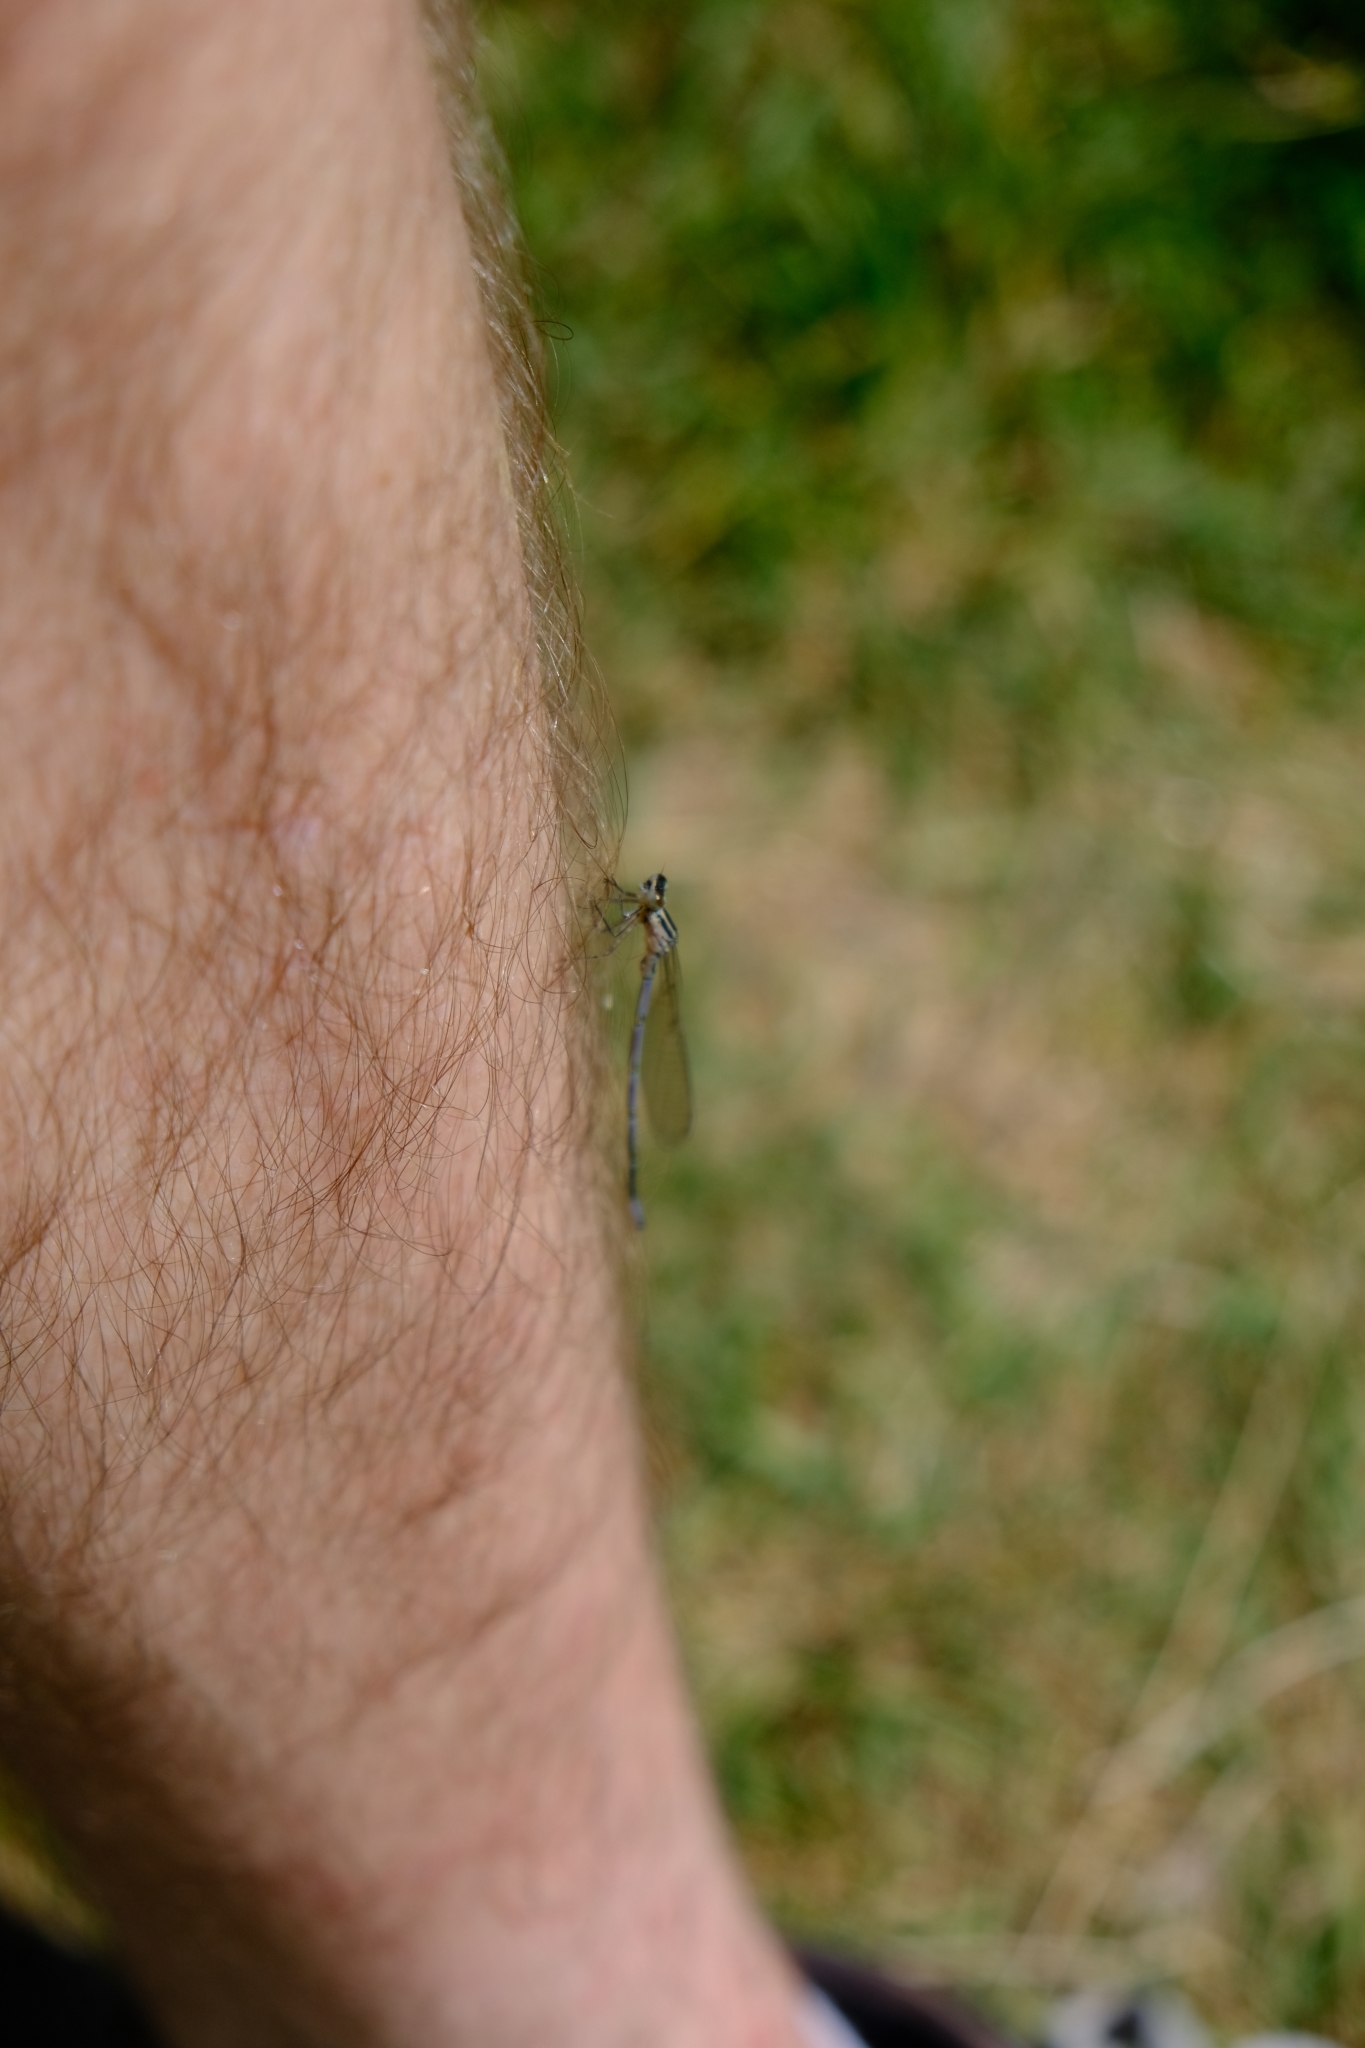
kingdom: Animalia
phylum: Arthropoda
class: Insecta
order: Odonata
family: Coenagrionidae
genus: Coenagrion
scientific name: Coenagrion puella
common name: Azure damselfly
